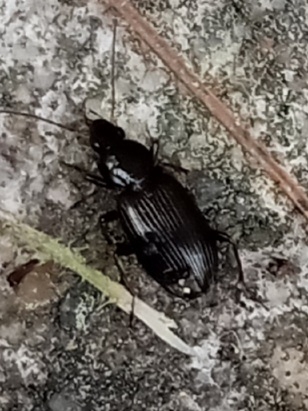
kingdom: Animalia
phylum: Arthropoda
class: Insecta
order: Coleoptera
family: Carabidae
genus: Agonum
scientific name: Agonum punctiforme
